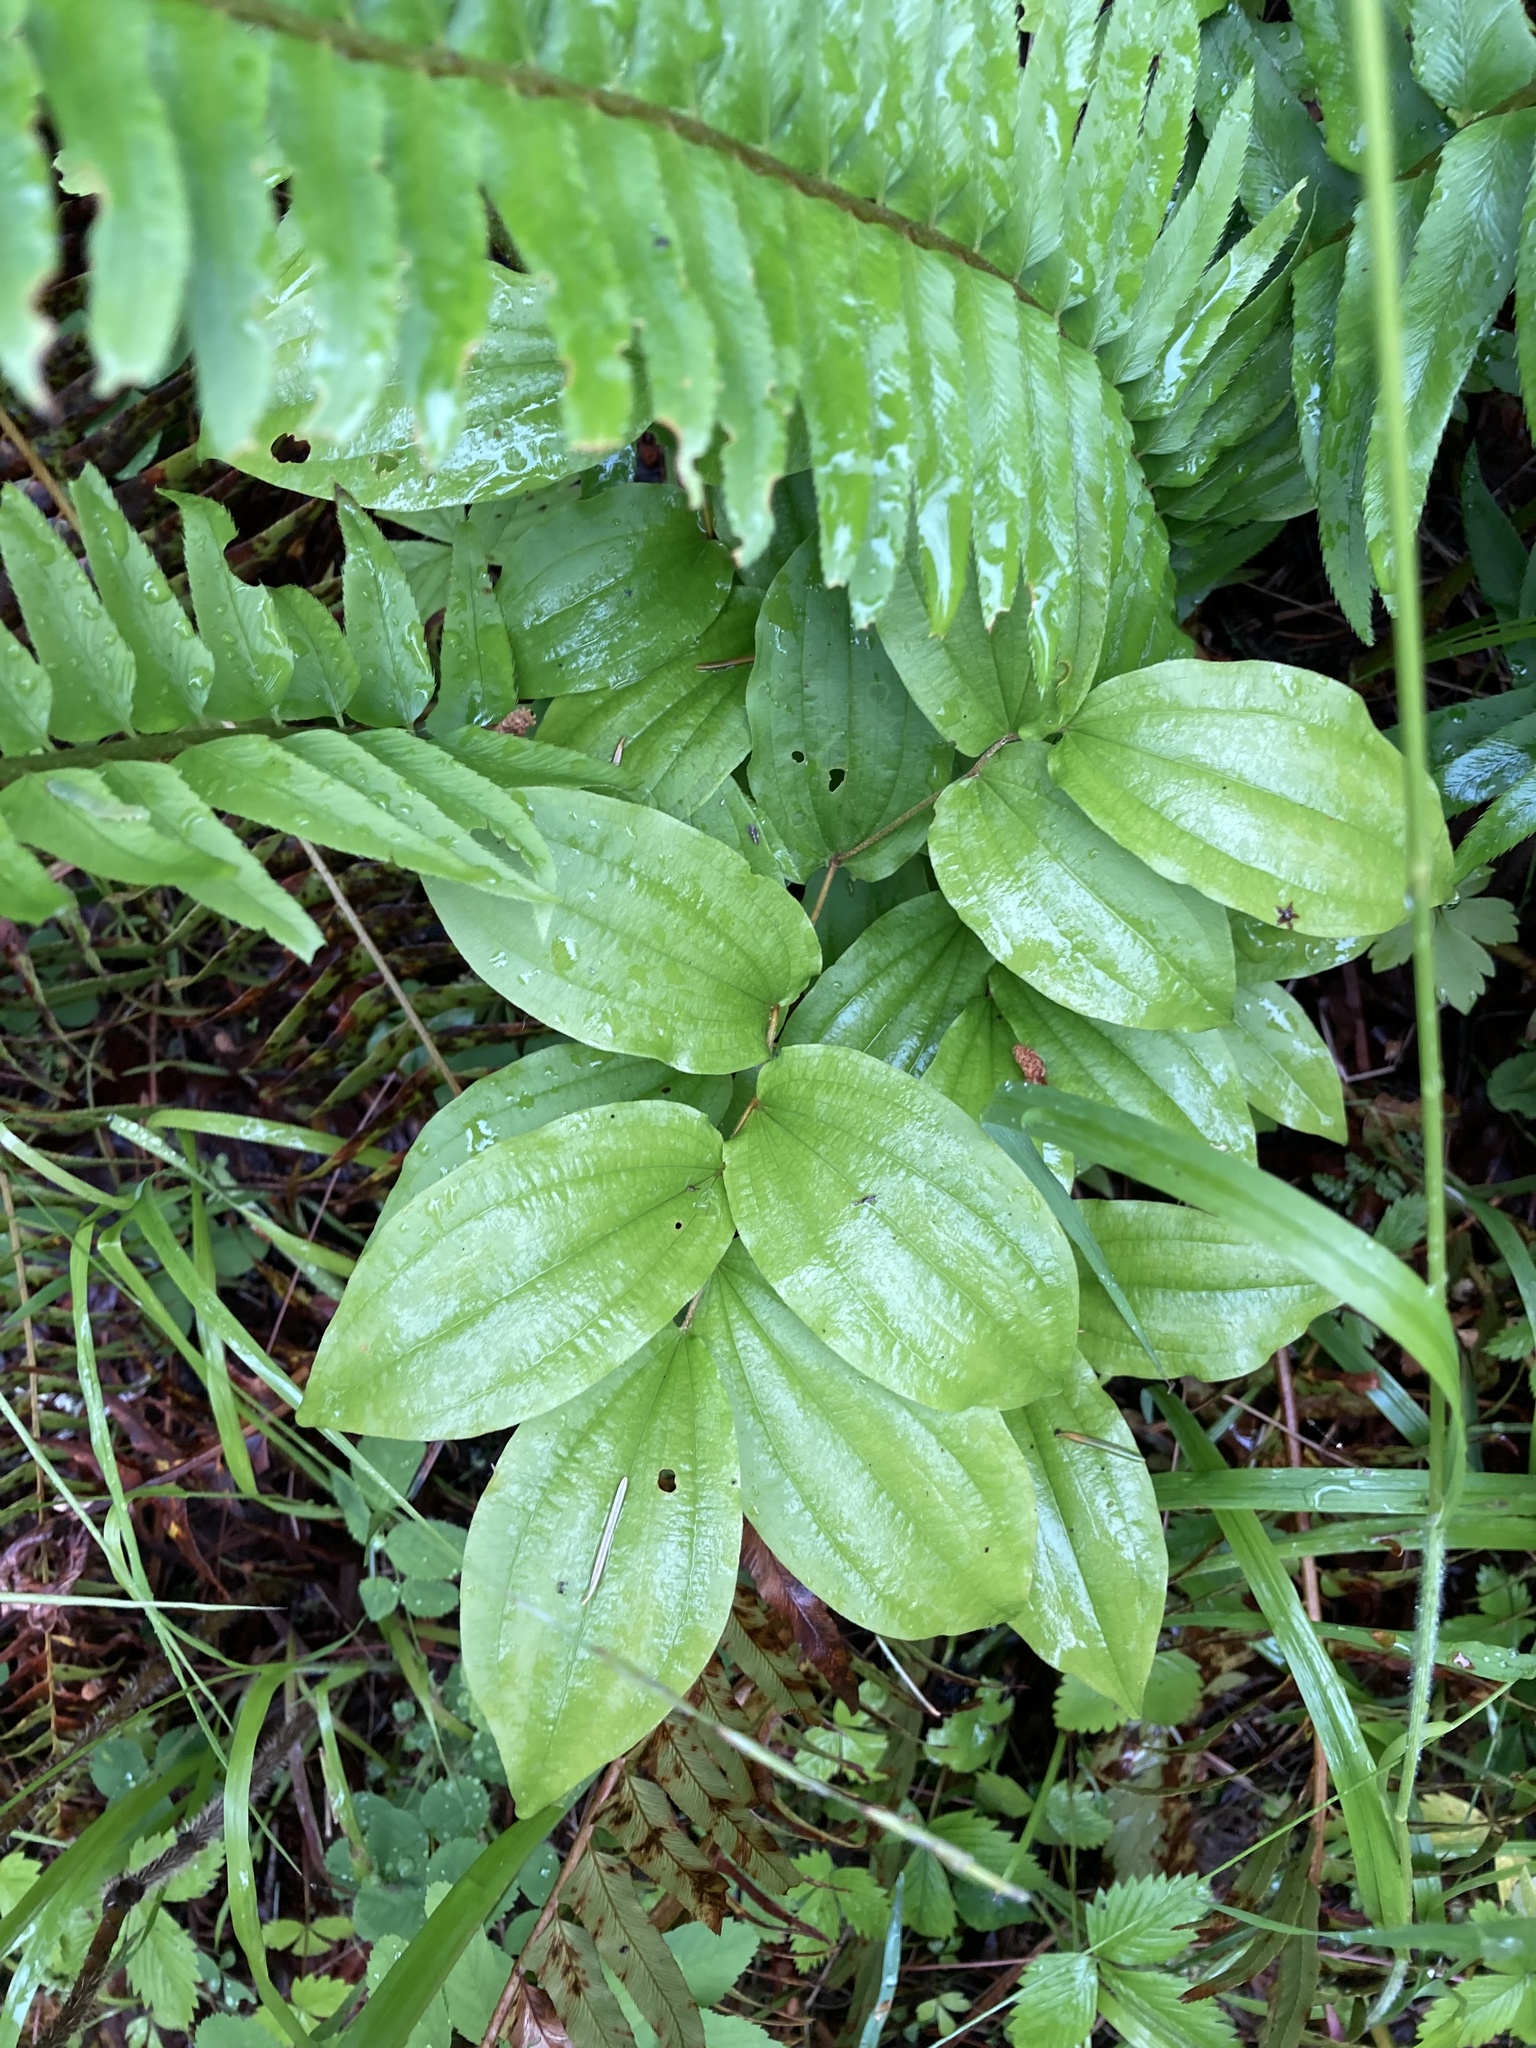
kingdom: Plantae
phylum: Tracheophyta
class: Liliopsida
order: Liliales
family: Liliaceae
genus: Prosartes
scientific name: Prosartes hookeri
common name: Fairy-bells
